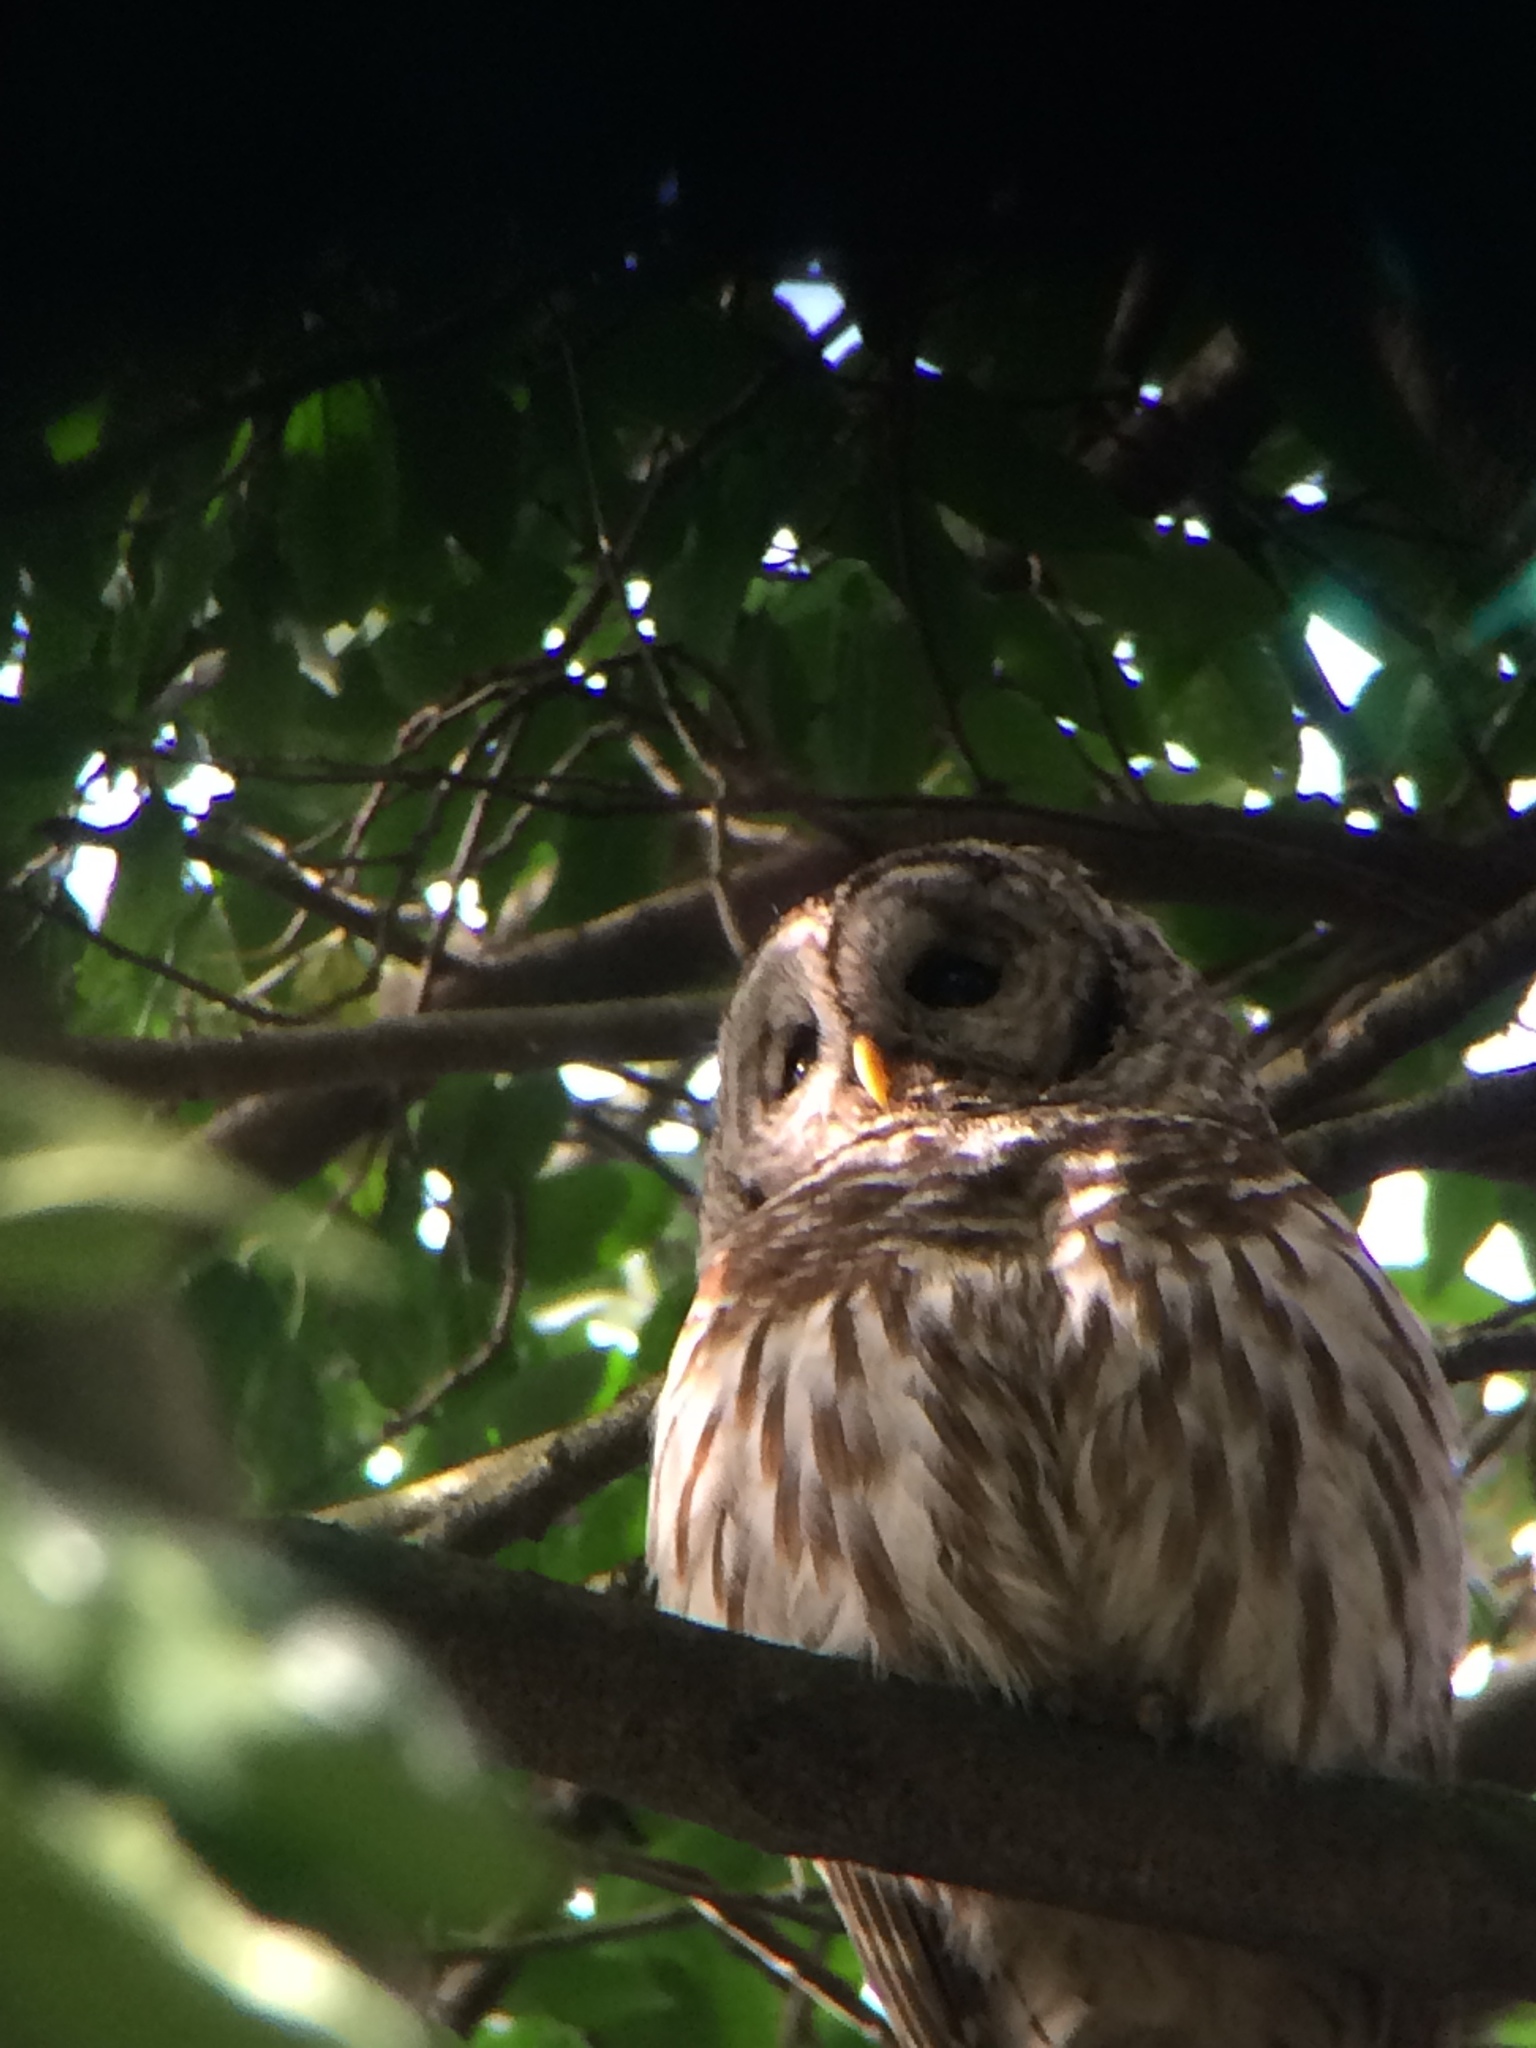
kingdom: Animalia
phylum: Chordata
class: Aves
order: Strigiformes
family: Strigidae
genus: Strix
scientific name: Strix varia
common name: Barred owl
